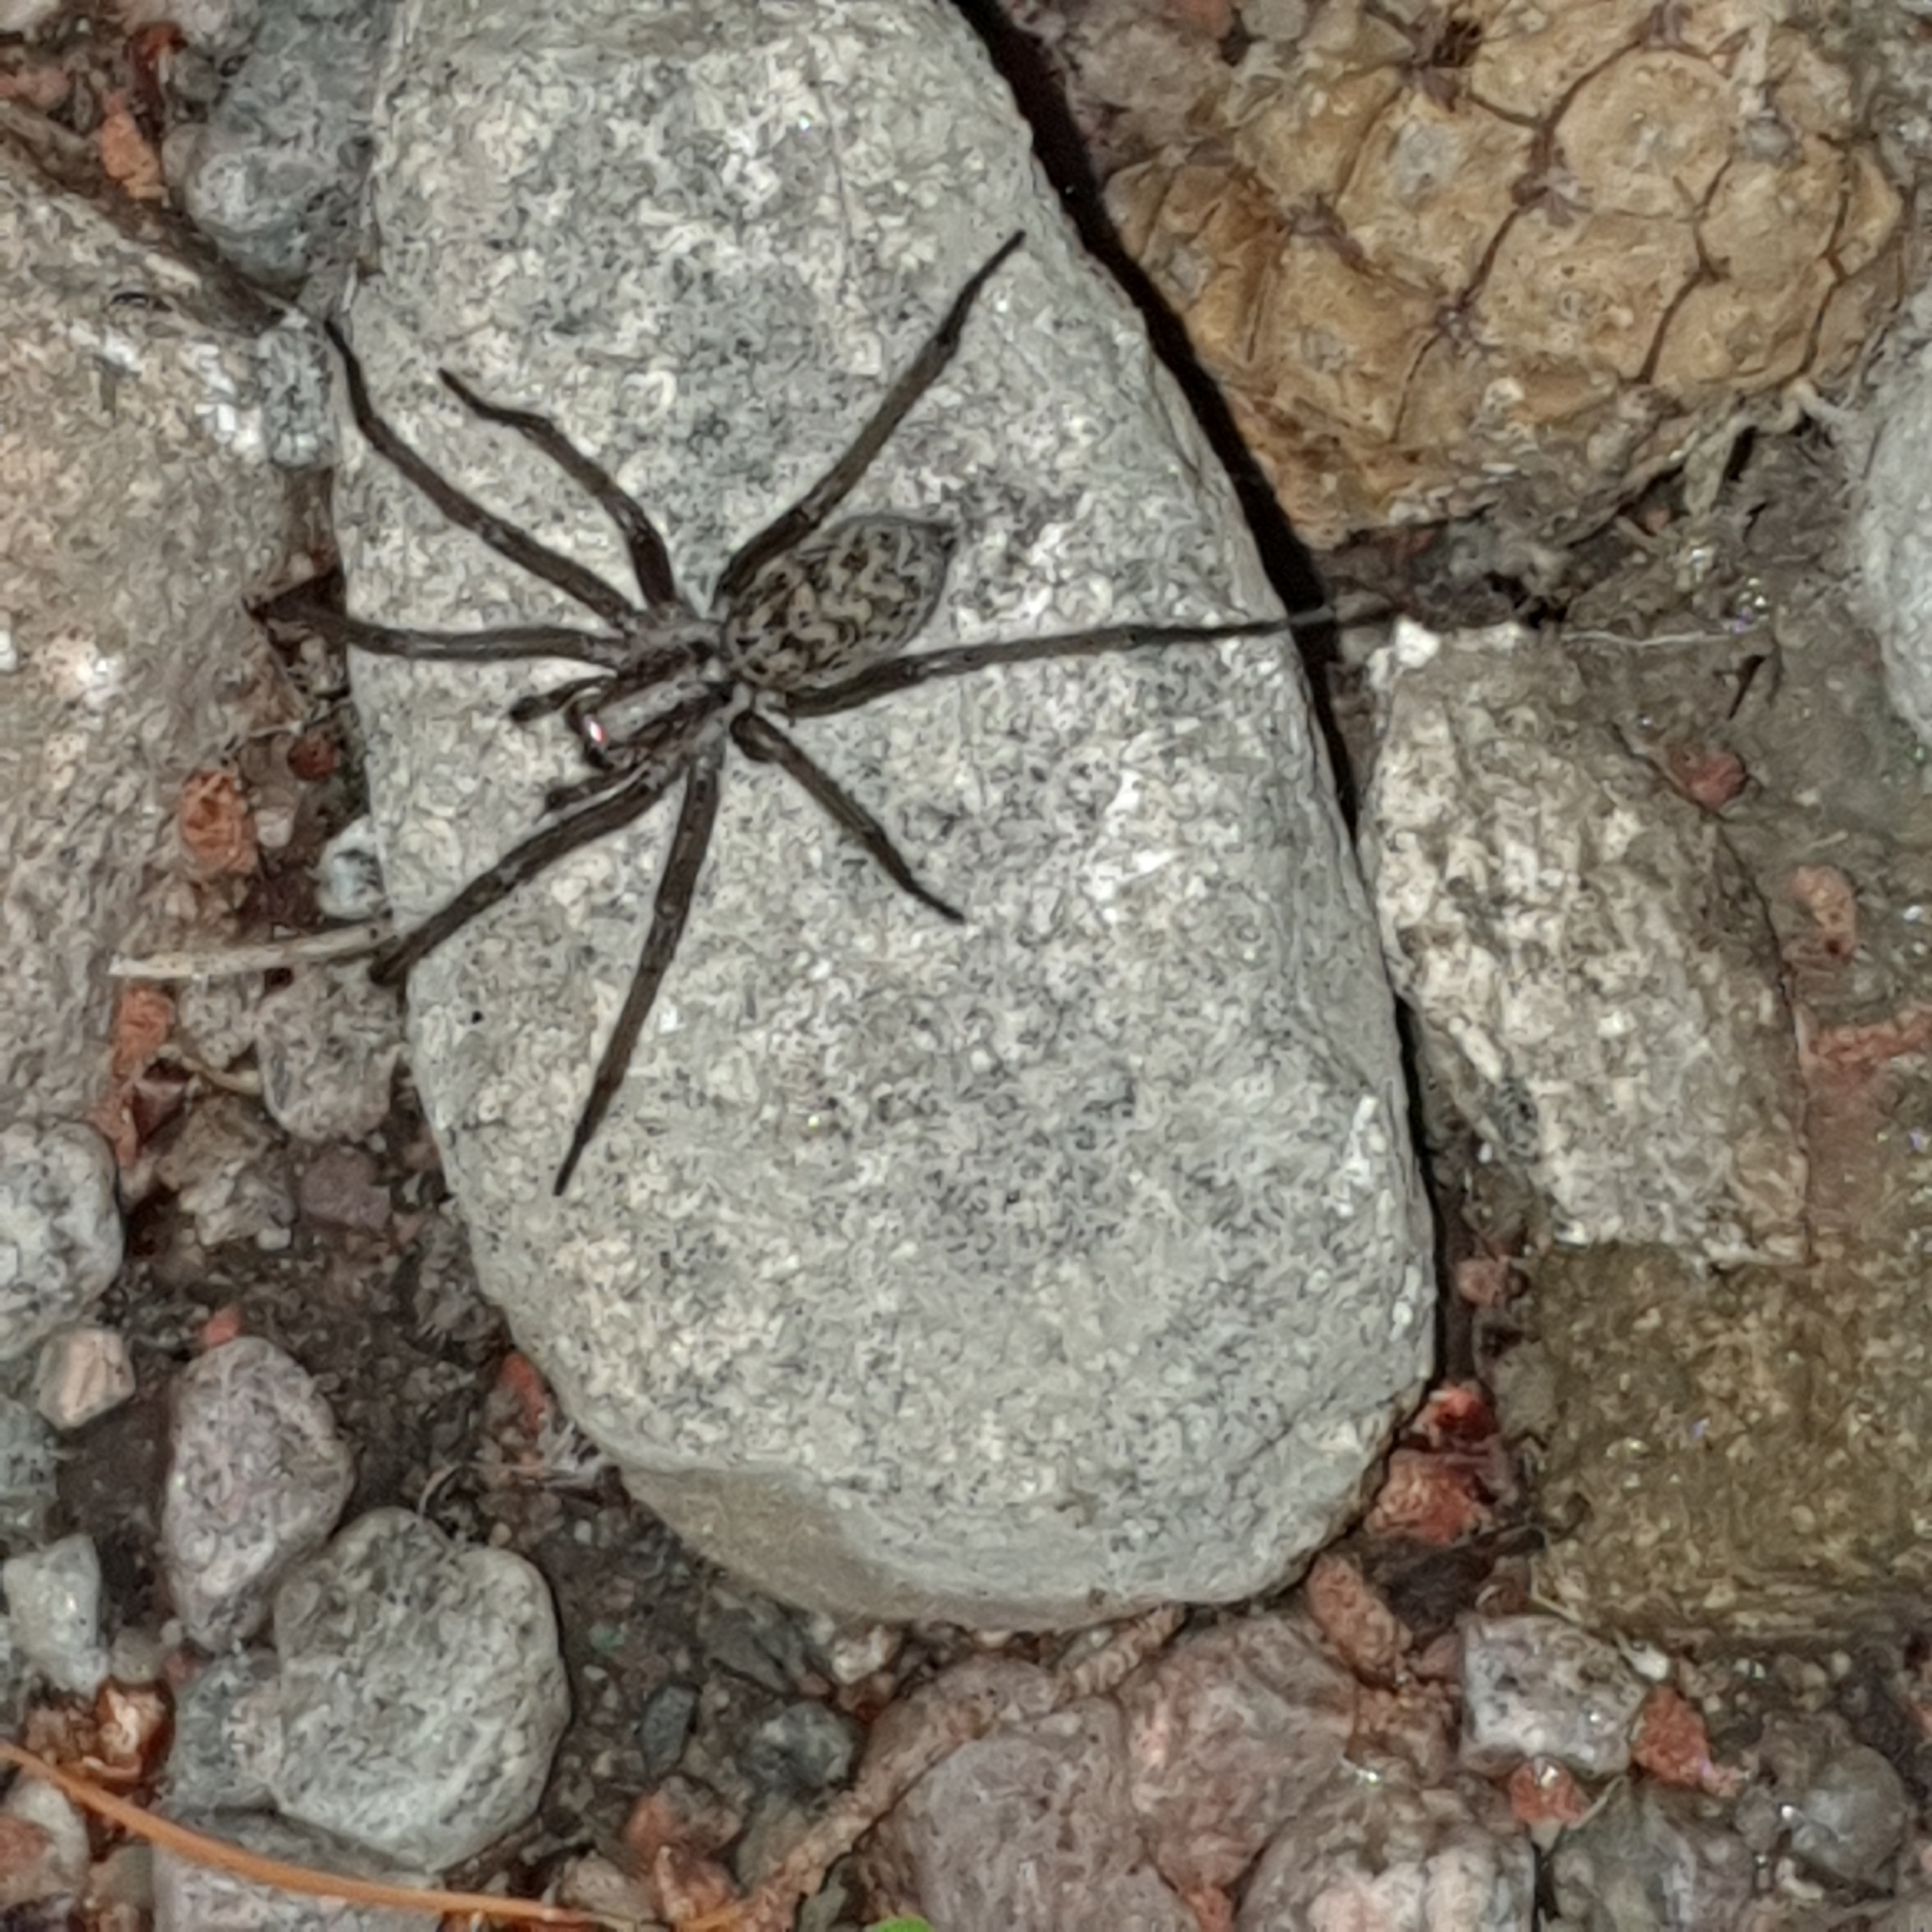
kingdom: Animalia
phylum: Arthropoda
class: Arachnida
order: Araneae
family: Agelenidae
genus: Eratigena
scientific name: Eratigena atrica
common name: Giant house spider
